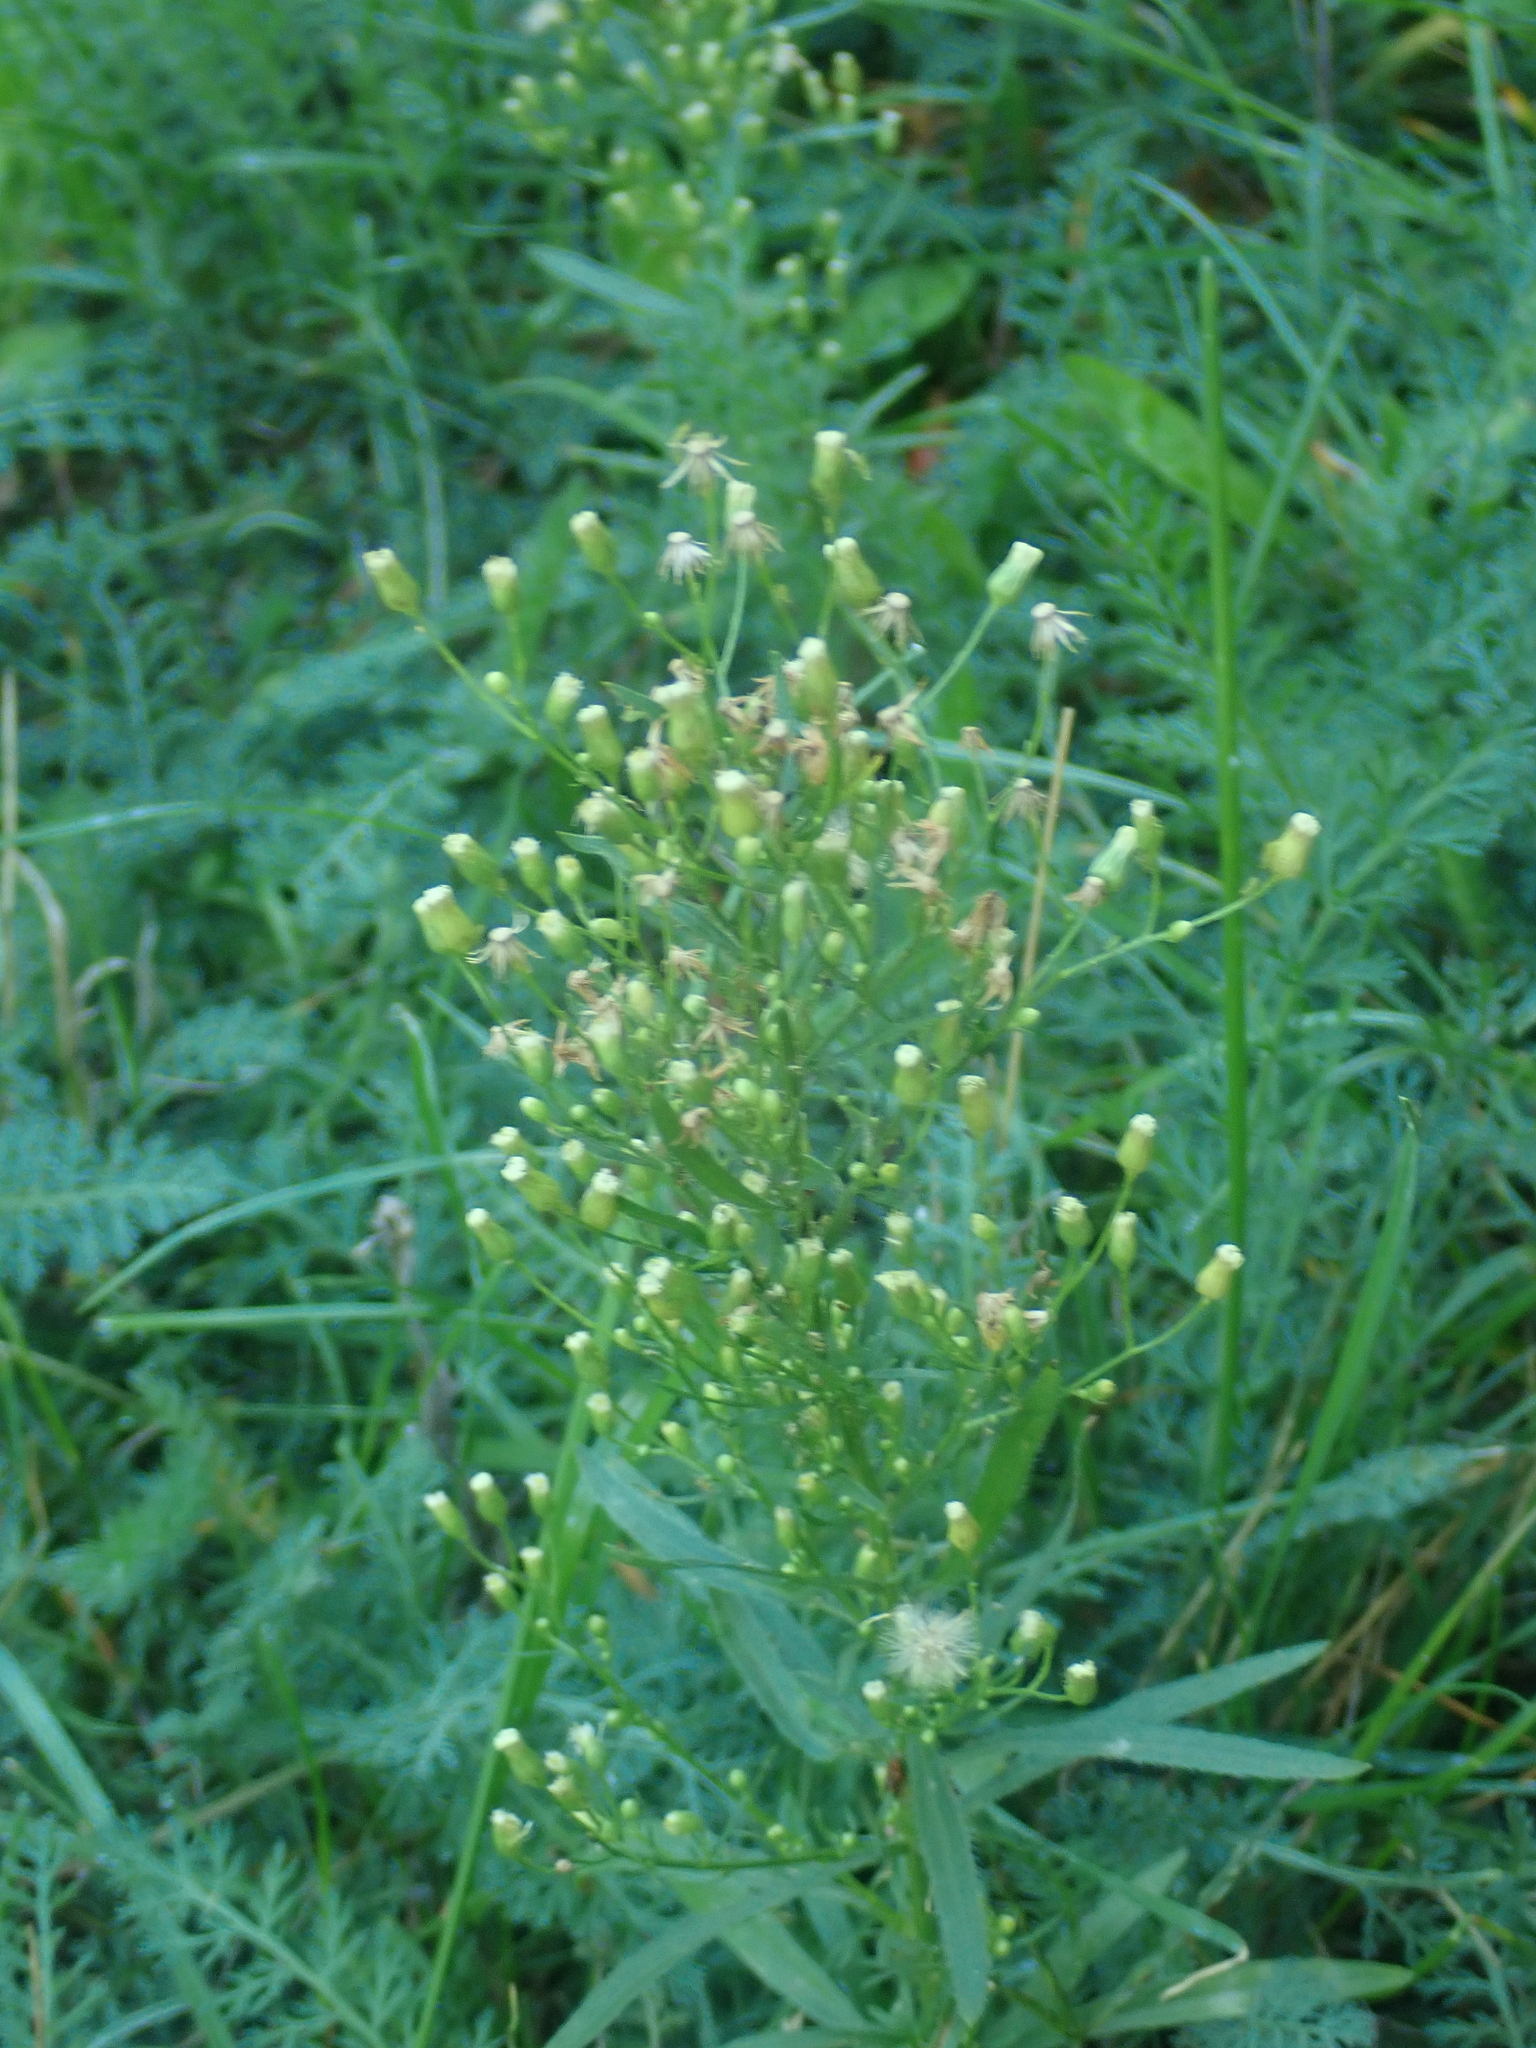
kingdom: Plantae
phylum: Tracheophyta
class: Magnoliopsida
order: Asterales
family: Asteraceae
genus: Erigeron
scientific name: Erigeron canadensis
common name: Canadian fleabane
